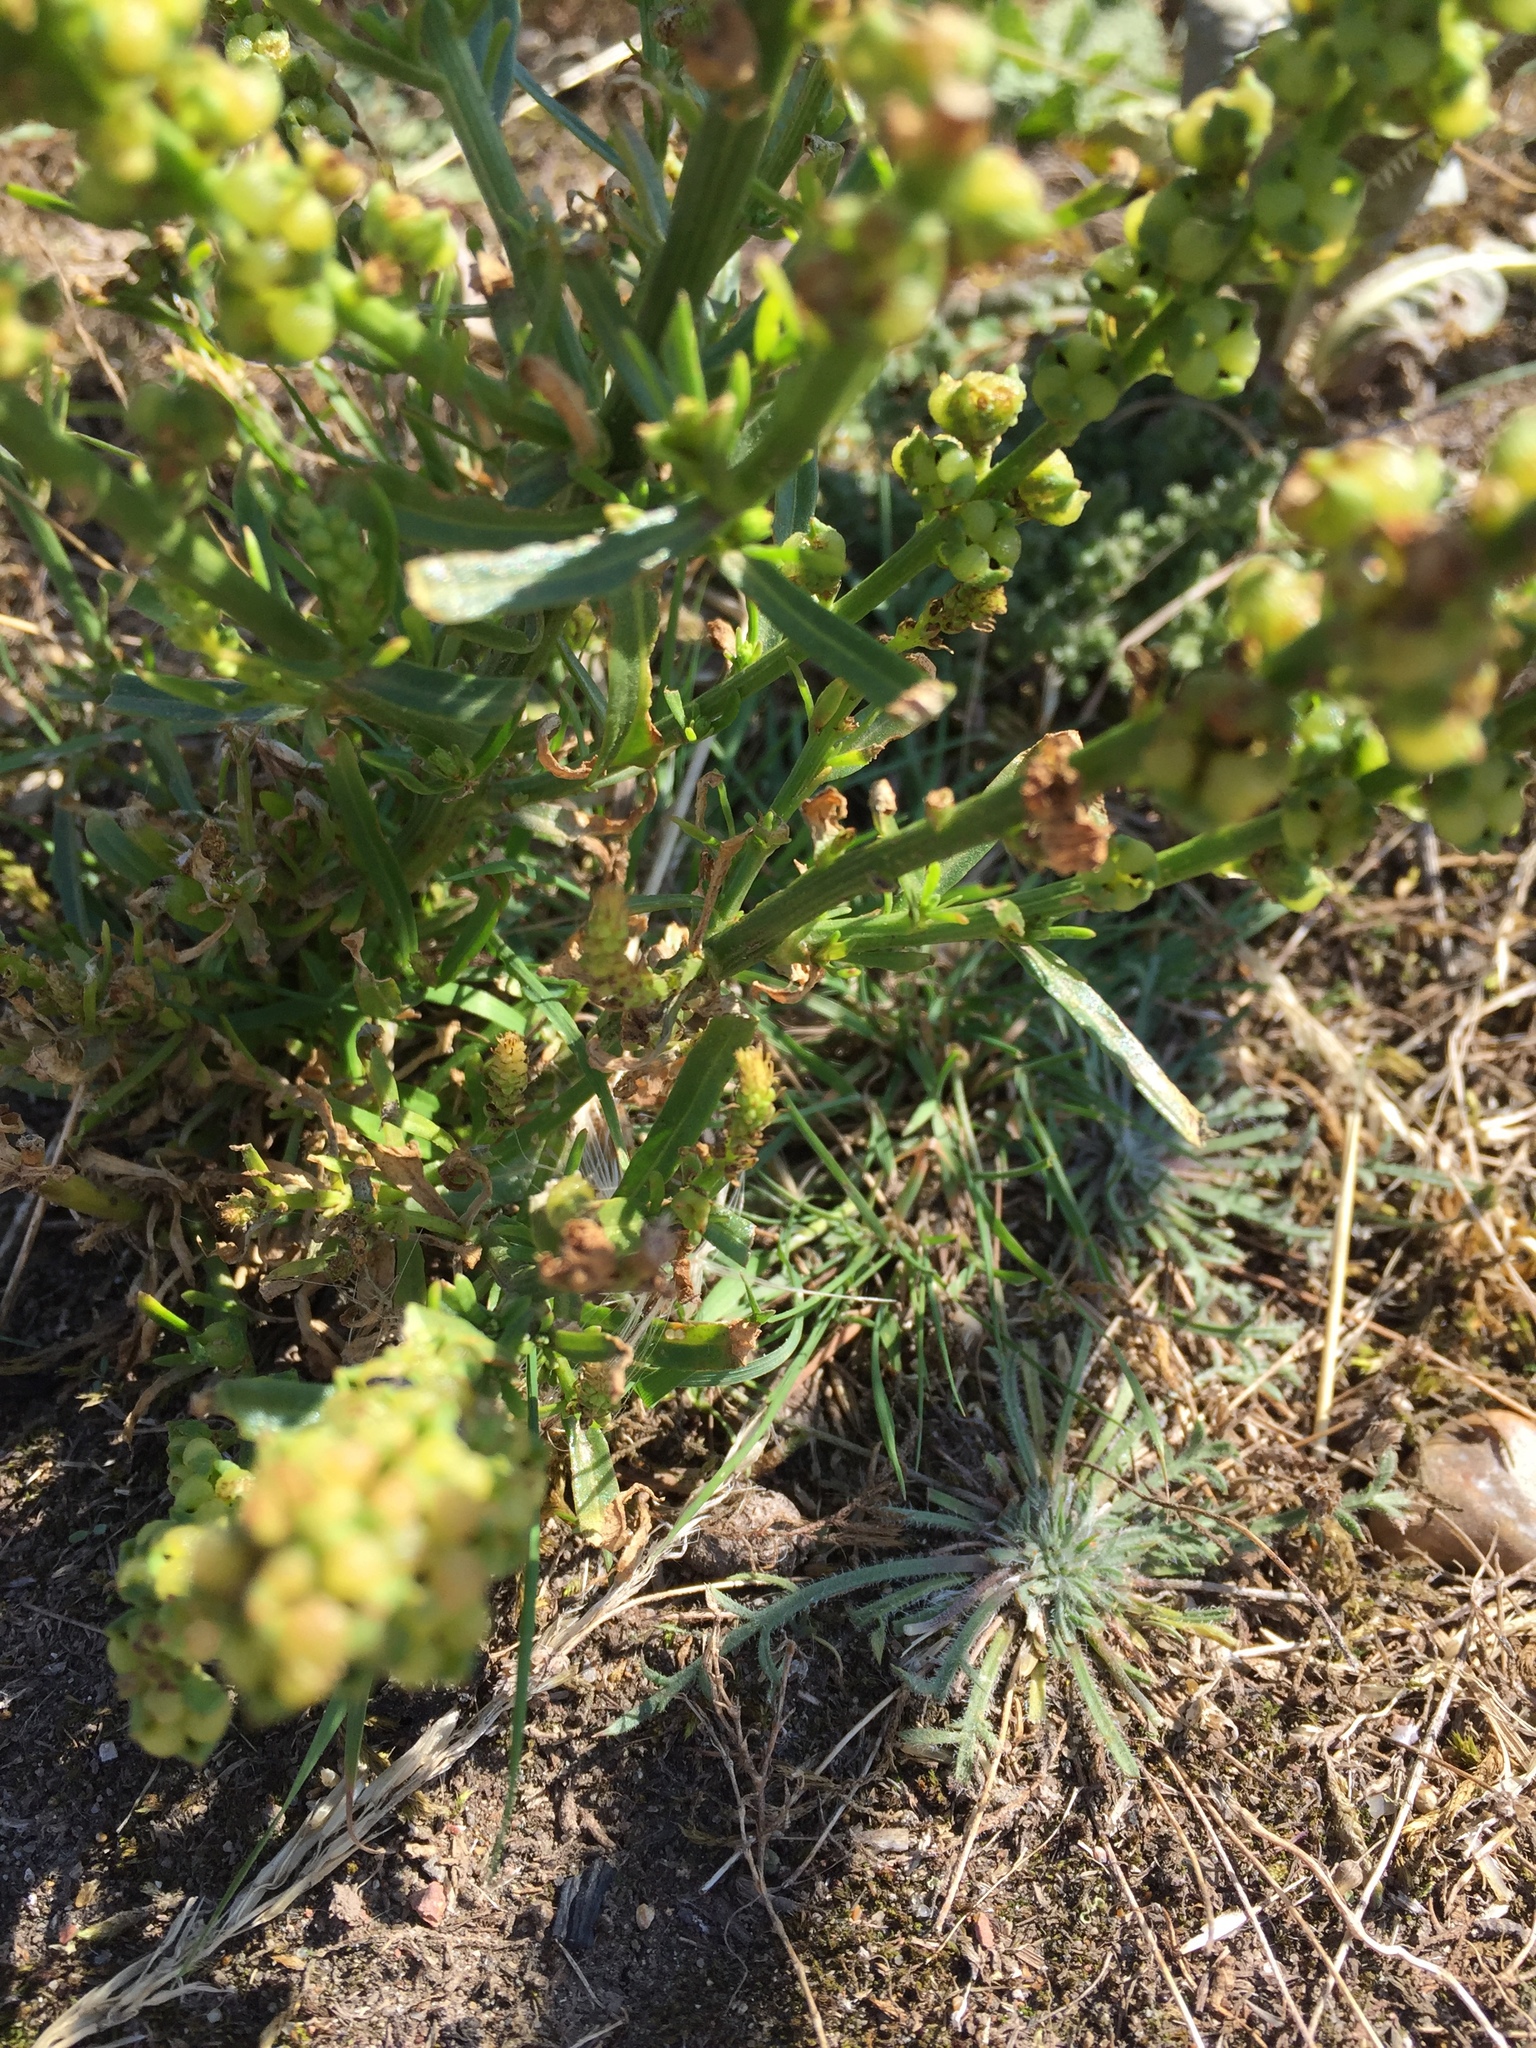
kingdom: Plantae
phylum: Tracheophyta
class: Magnoliopsida
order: Brassicales
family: Resedaceae
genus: Reseda
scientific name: Reseda luteola
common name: Weld
